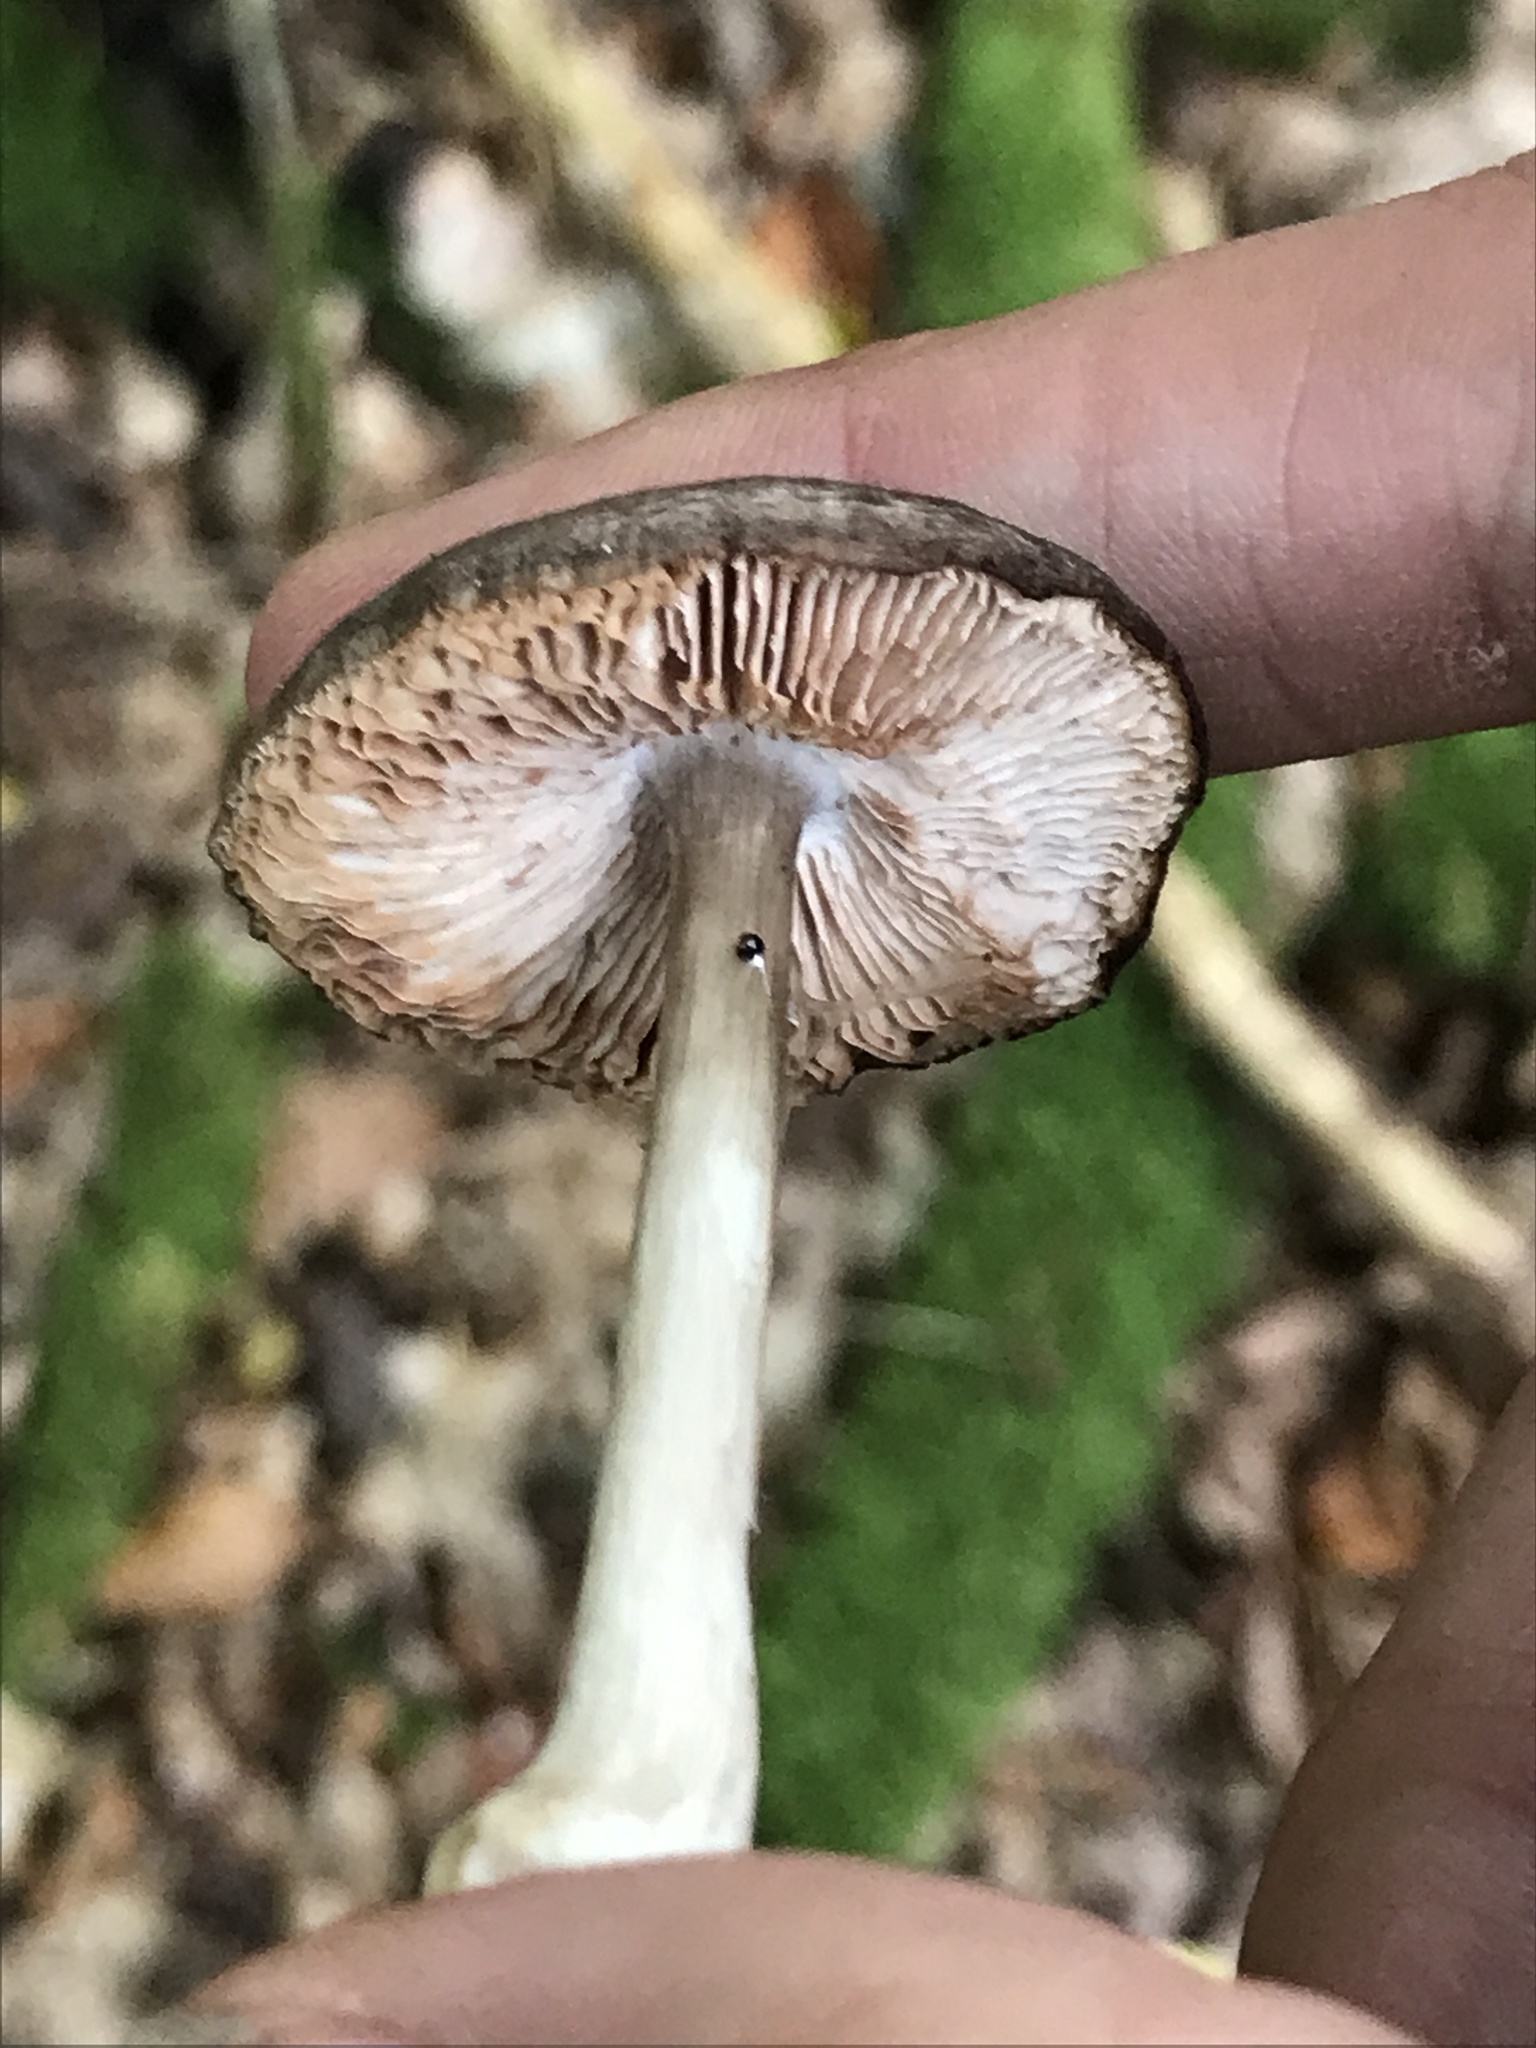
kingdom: Fungi
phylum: Basidiomycota
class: Agaricomycetes
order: Agaricales
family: Pluteaceae
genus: Pluteus
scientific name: Pluteus cervinus
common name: Deer shield
